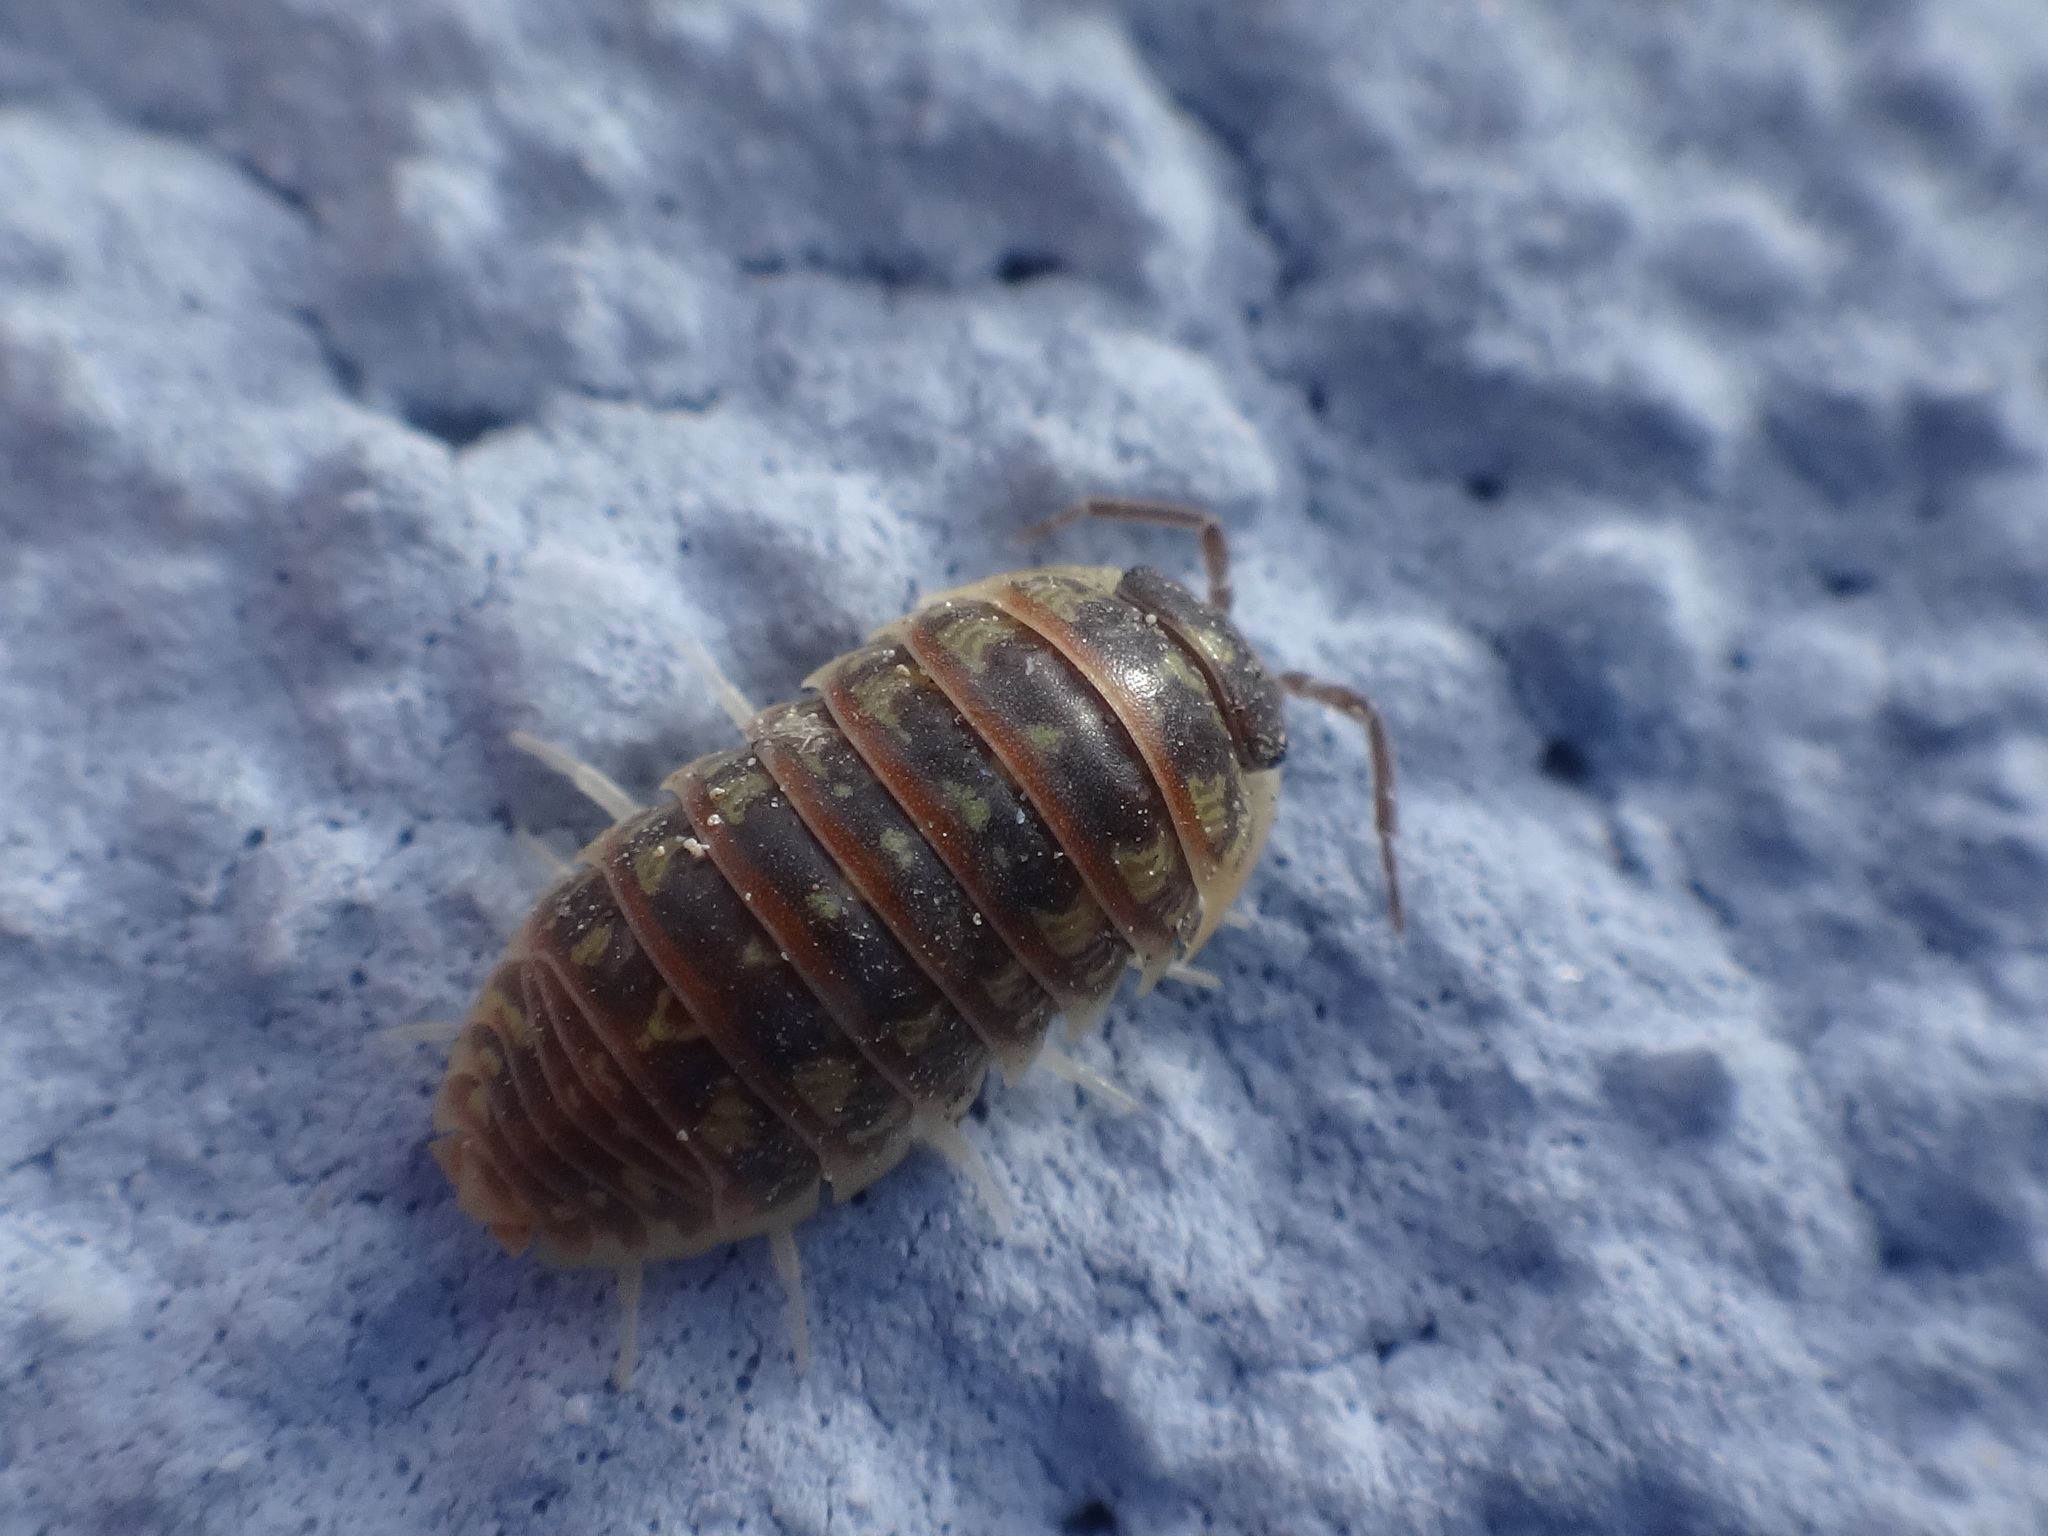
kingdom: Animalia
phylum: Arthropoda
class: Malacostraca
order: Isopoda
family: Armadillidiidae
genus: Armadillidium
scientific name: Armadillidium versicolor
